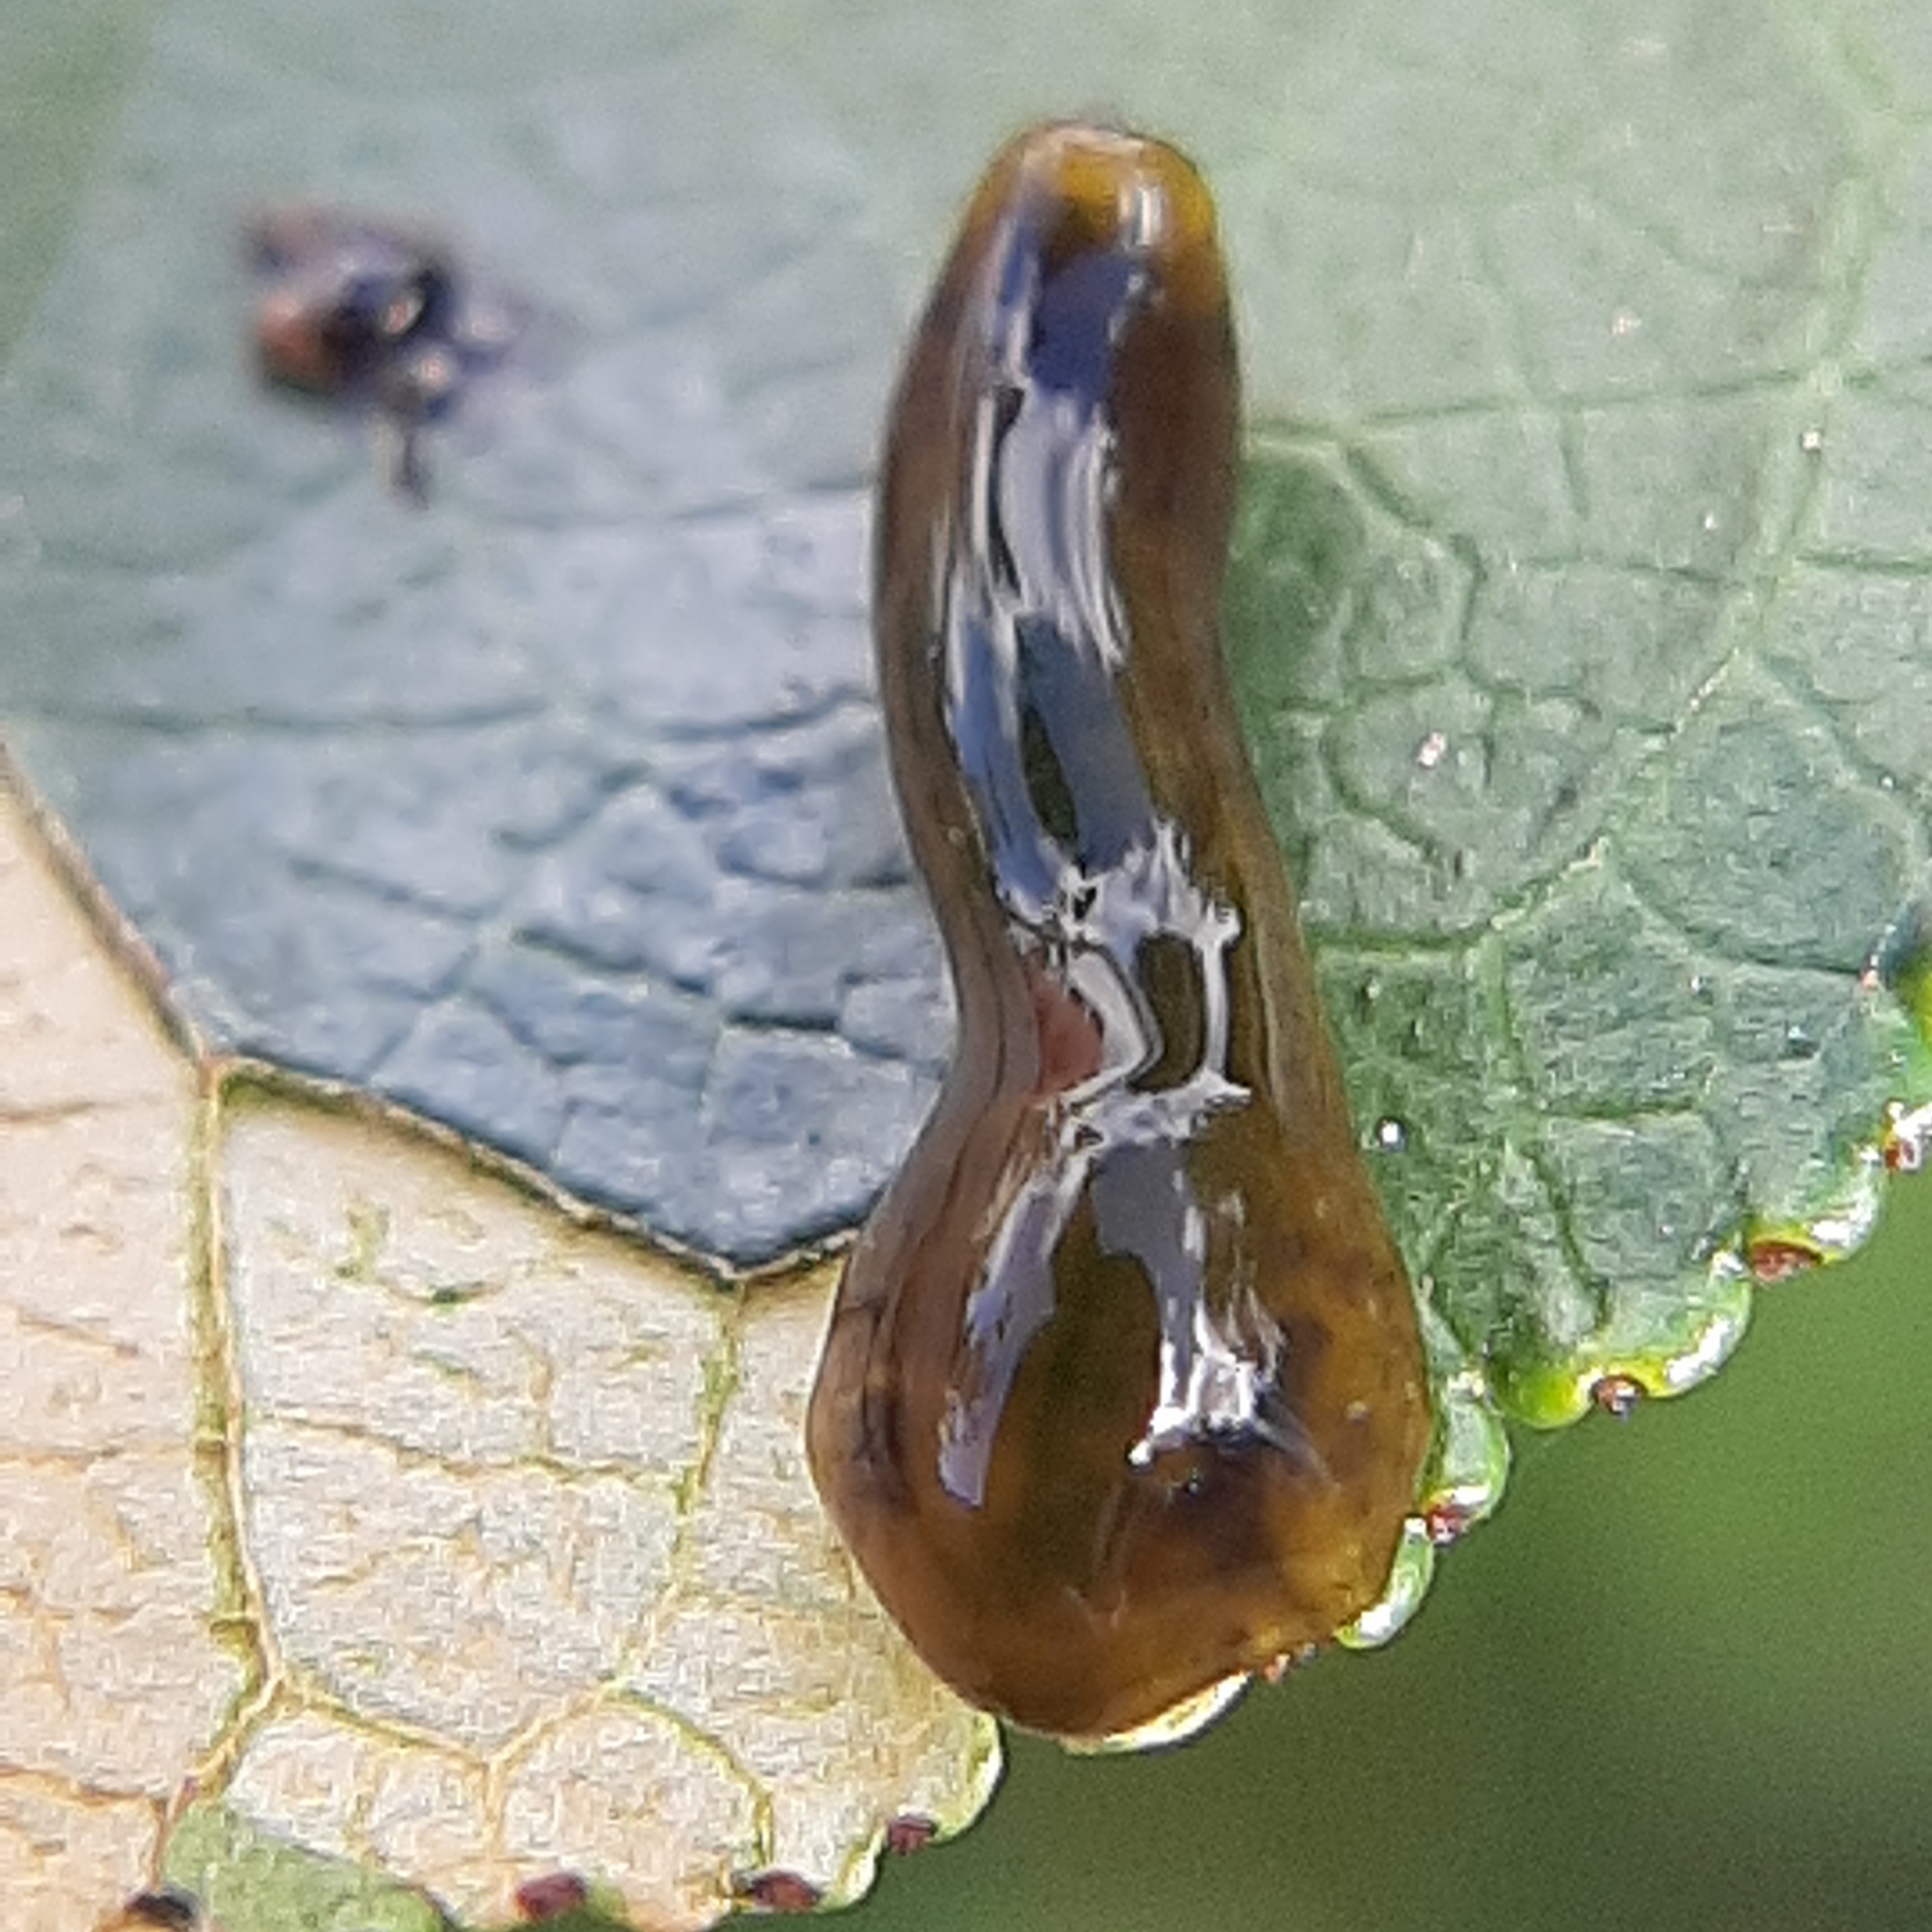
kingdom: Animalia
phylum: Arthropoda
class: Insecta
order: Hymenoptera
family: Tenthredinidae
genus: Caliroa
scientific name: Caliroa cerasi
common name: Pear sawfly
